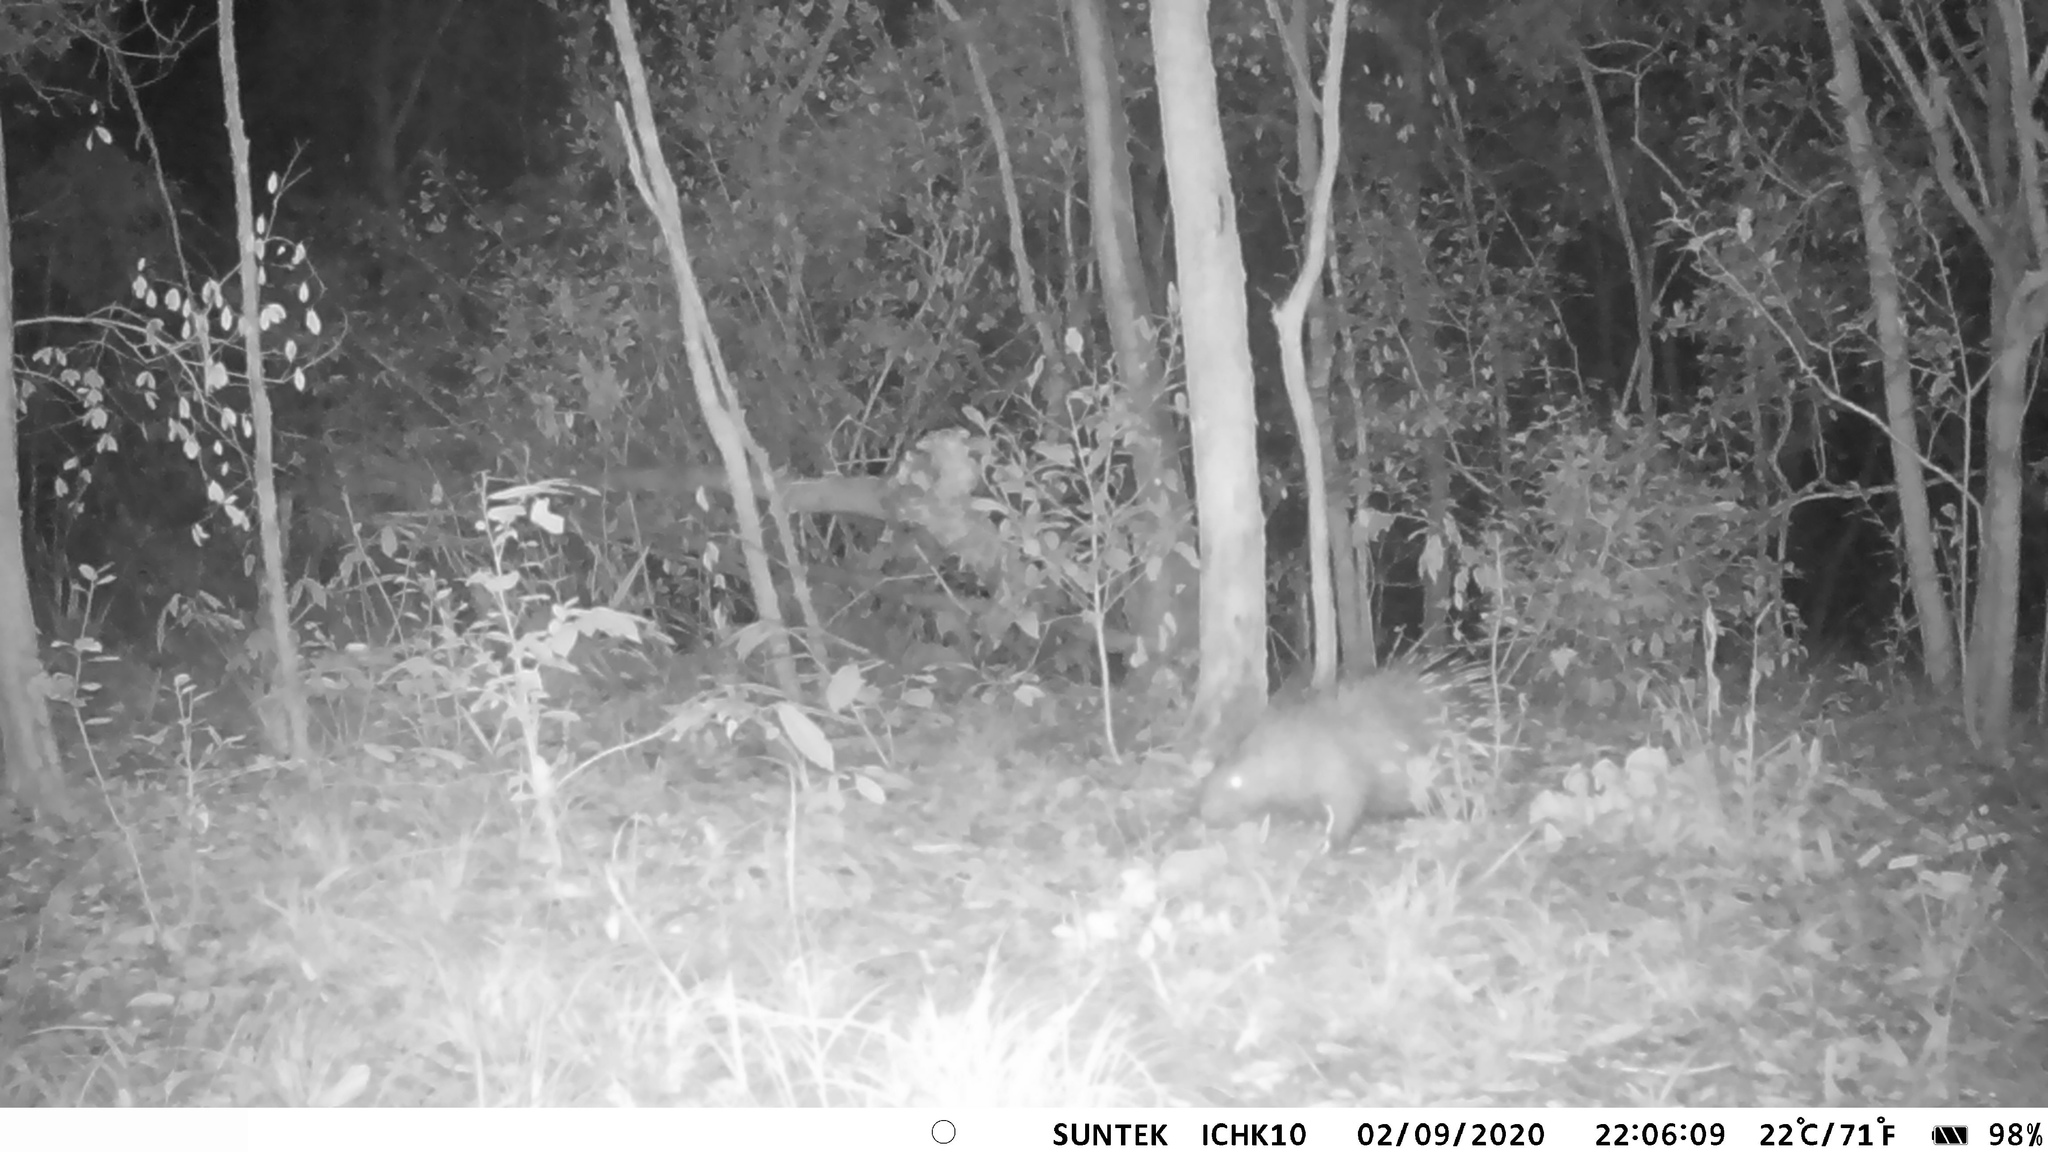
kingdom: Animalia
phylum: Chordata
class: Mammalia
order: Rodentia
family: Hystricidae
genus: Hystrix
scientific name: Hystrix brachyura
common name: Malayan porcupine
